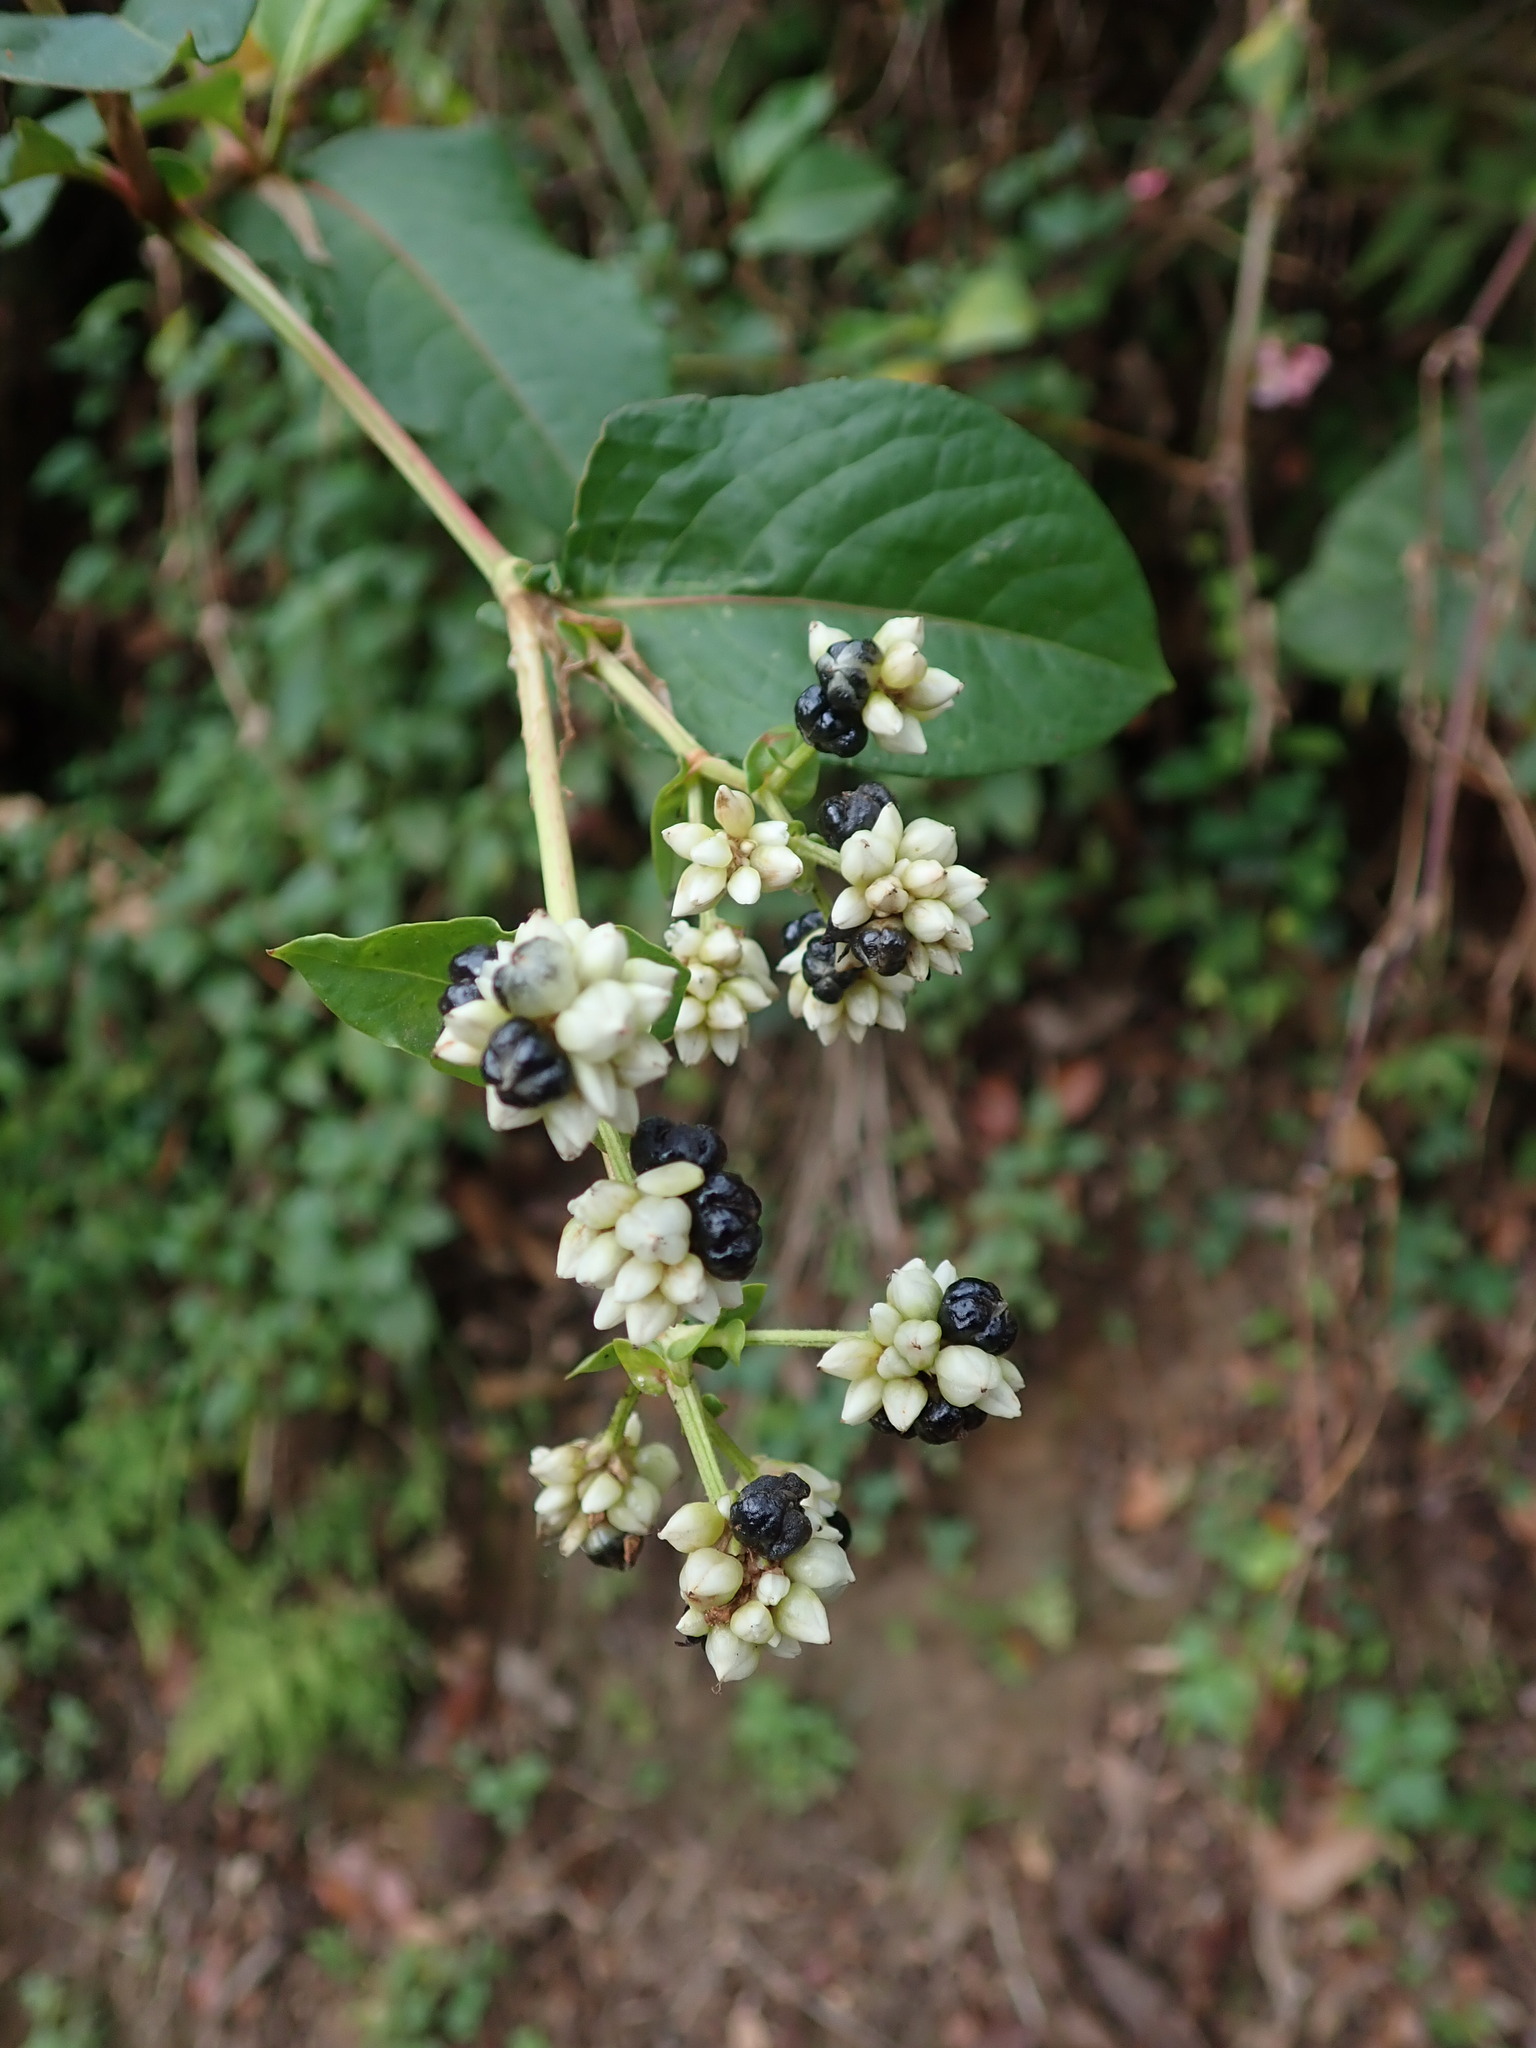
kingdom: Plantae
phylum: Tracheophyta
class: Magnoliopsida
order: Caryophyllales
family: Polygonaceae
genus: Persicaria
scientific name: Persicaria chinensis
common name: Chinese knotweed
